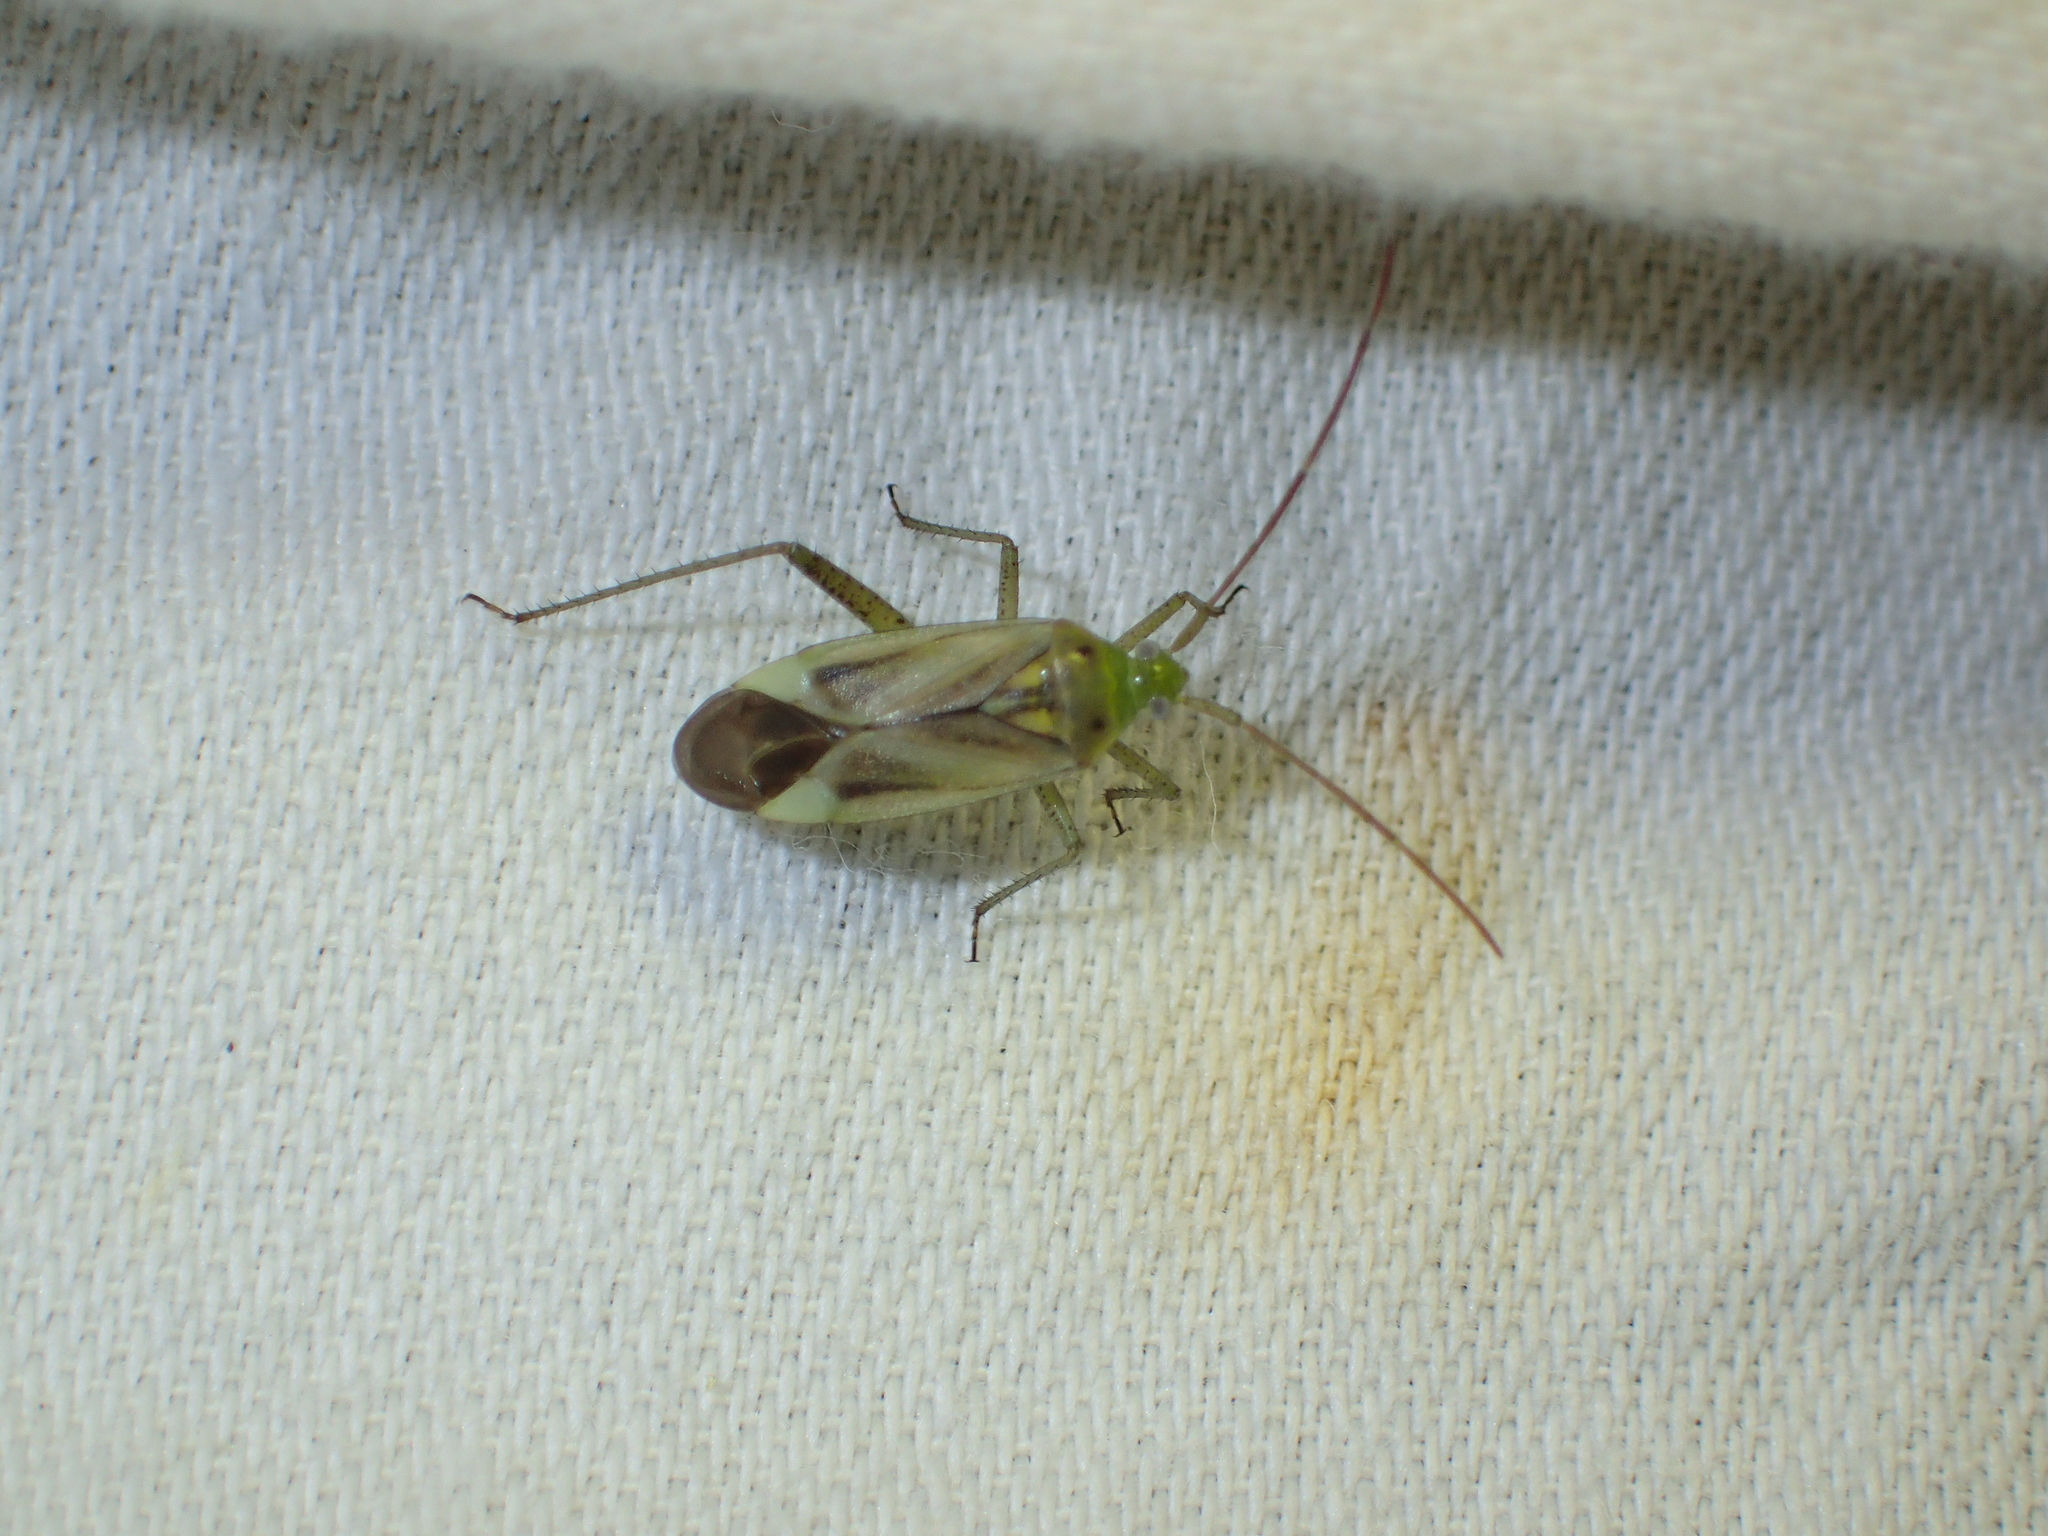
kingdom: Animalia
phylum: Arthropoda
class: Insecta
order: Hemiptera
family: Miridae
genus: Adelphocoris
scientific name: Adelphocoris lineolatus
